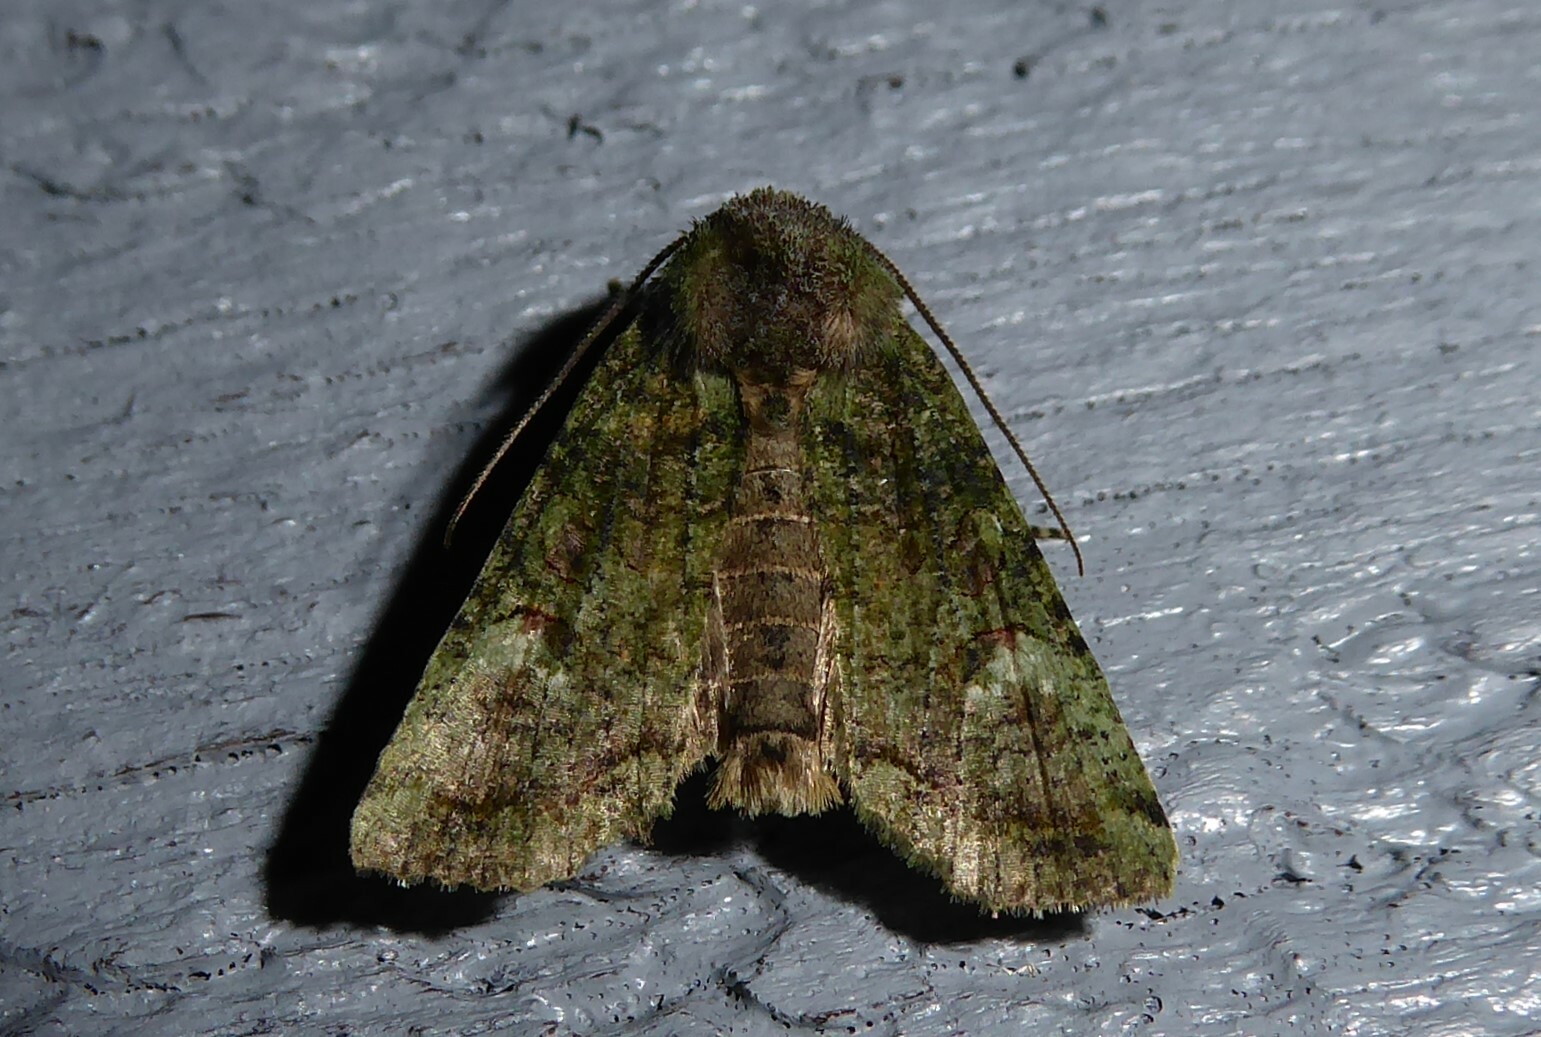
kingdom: Animalia
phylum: Arthropoda
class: Insecta
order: Lepidoptera
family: Noctuidae
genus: Meterana
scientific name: Meterana levis
